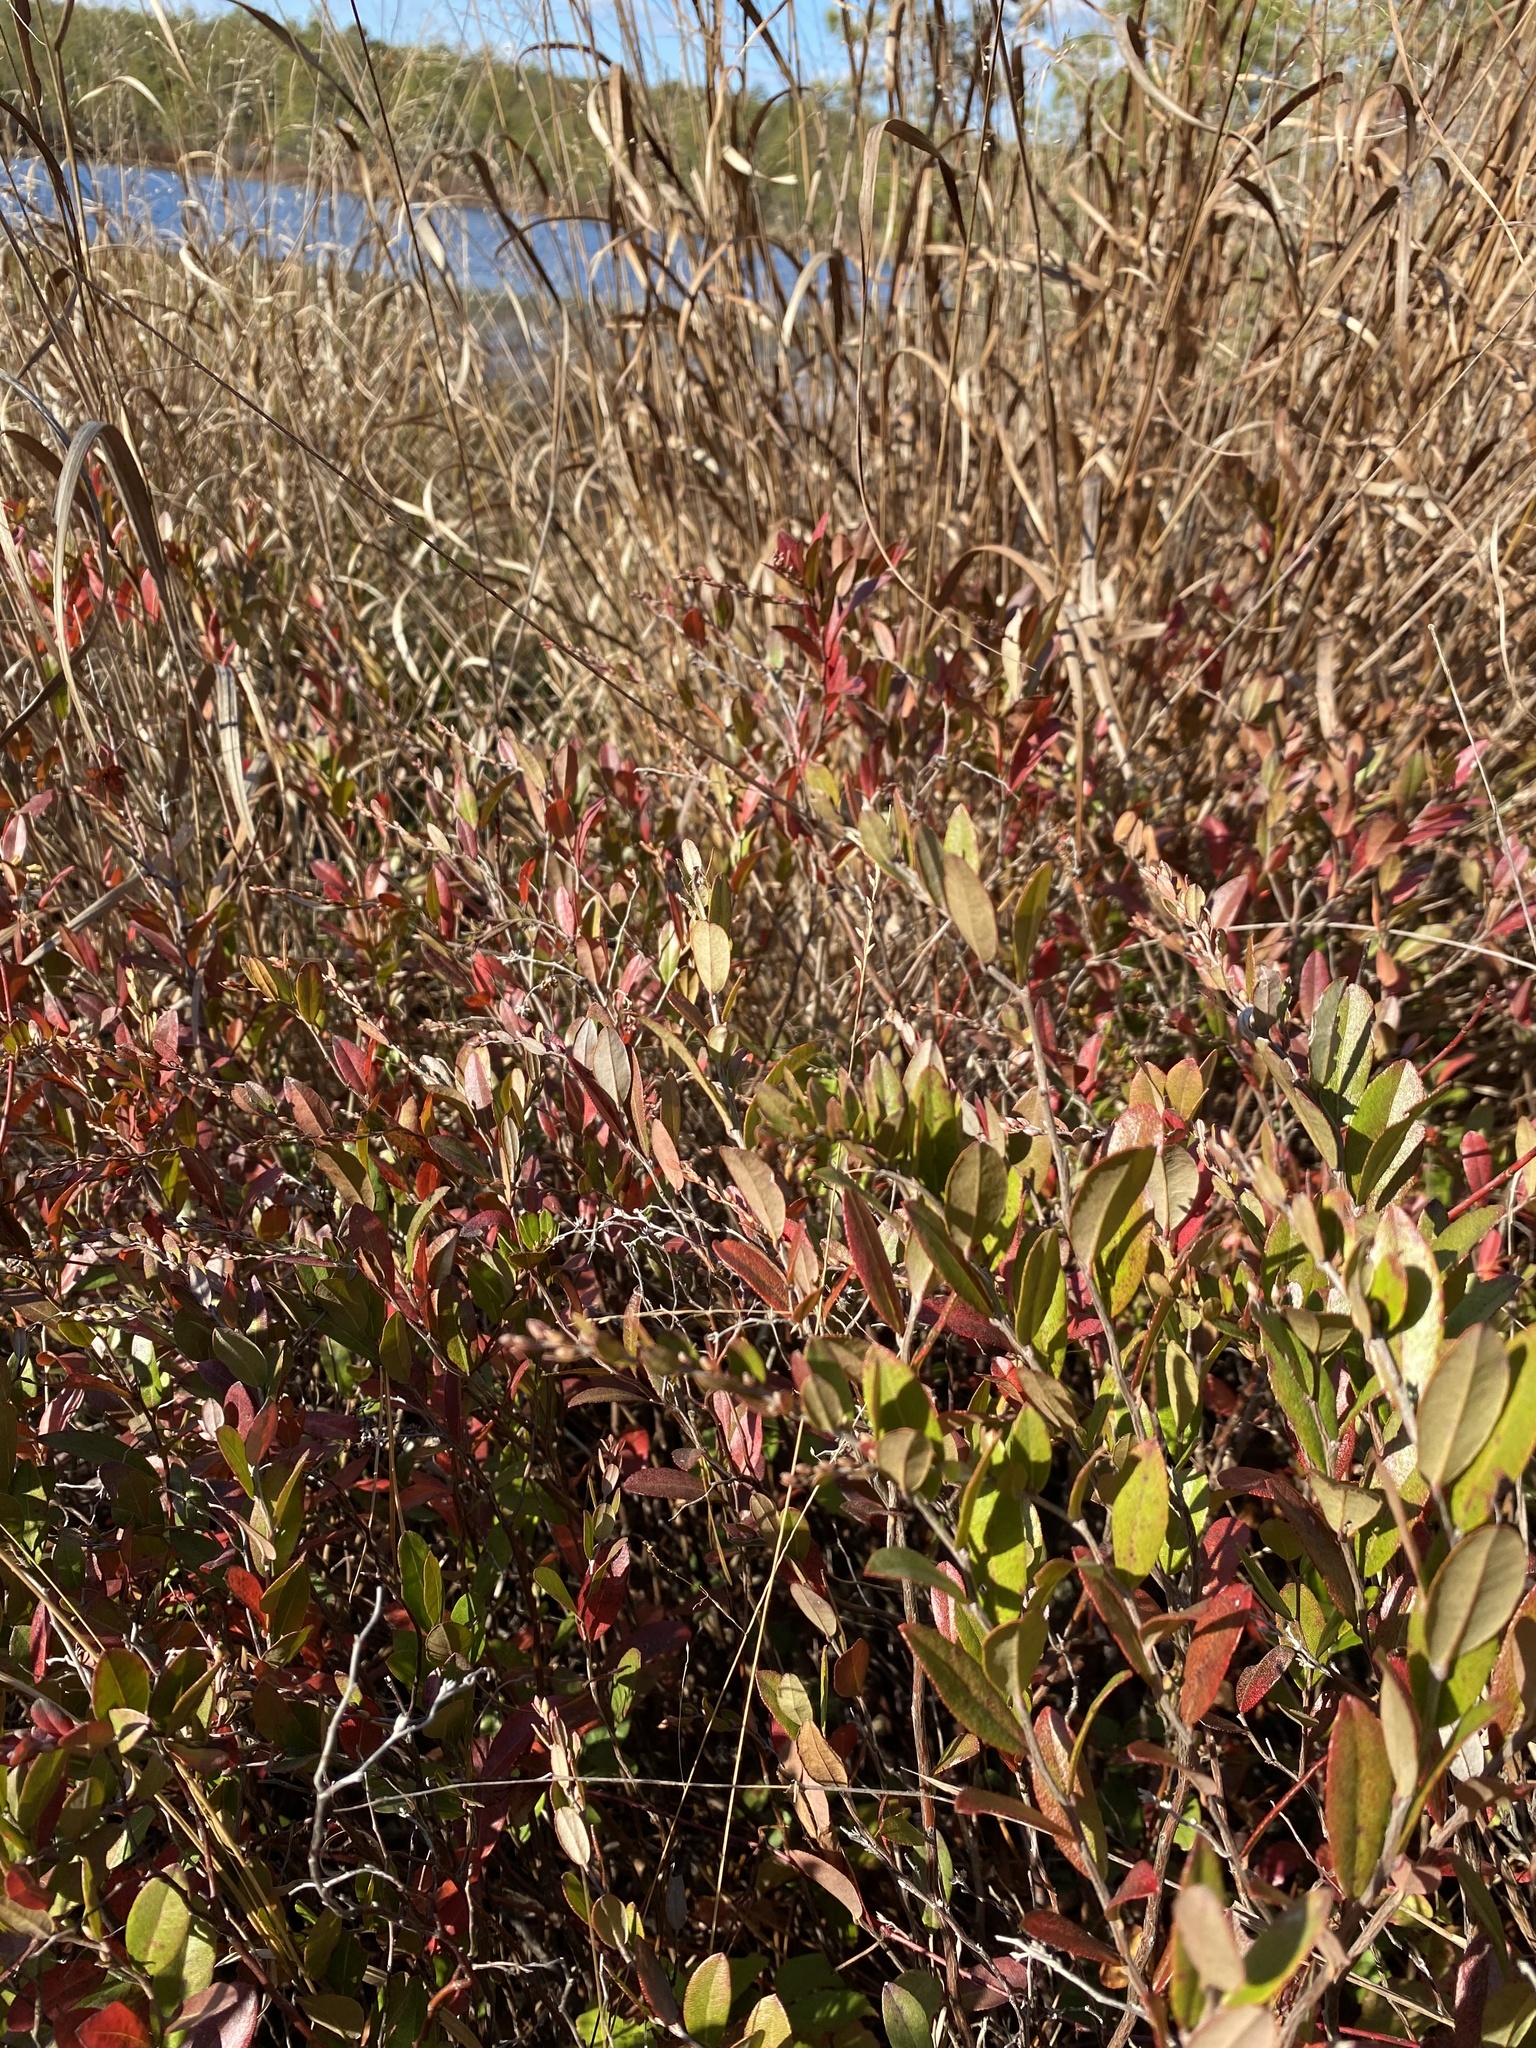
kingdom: Plantae
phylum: Tracheophyta
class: Magnoliopsida
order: Ericales
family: Ericaceae
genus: Chamaedaphne
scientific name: Chamaedaphne calyculata
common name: Leatherleaf
